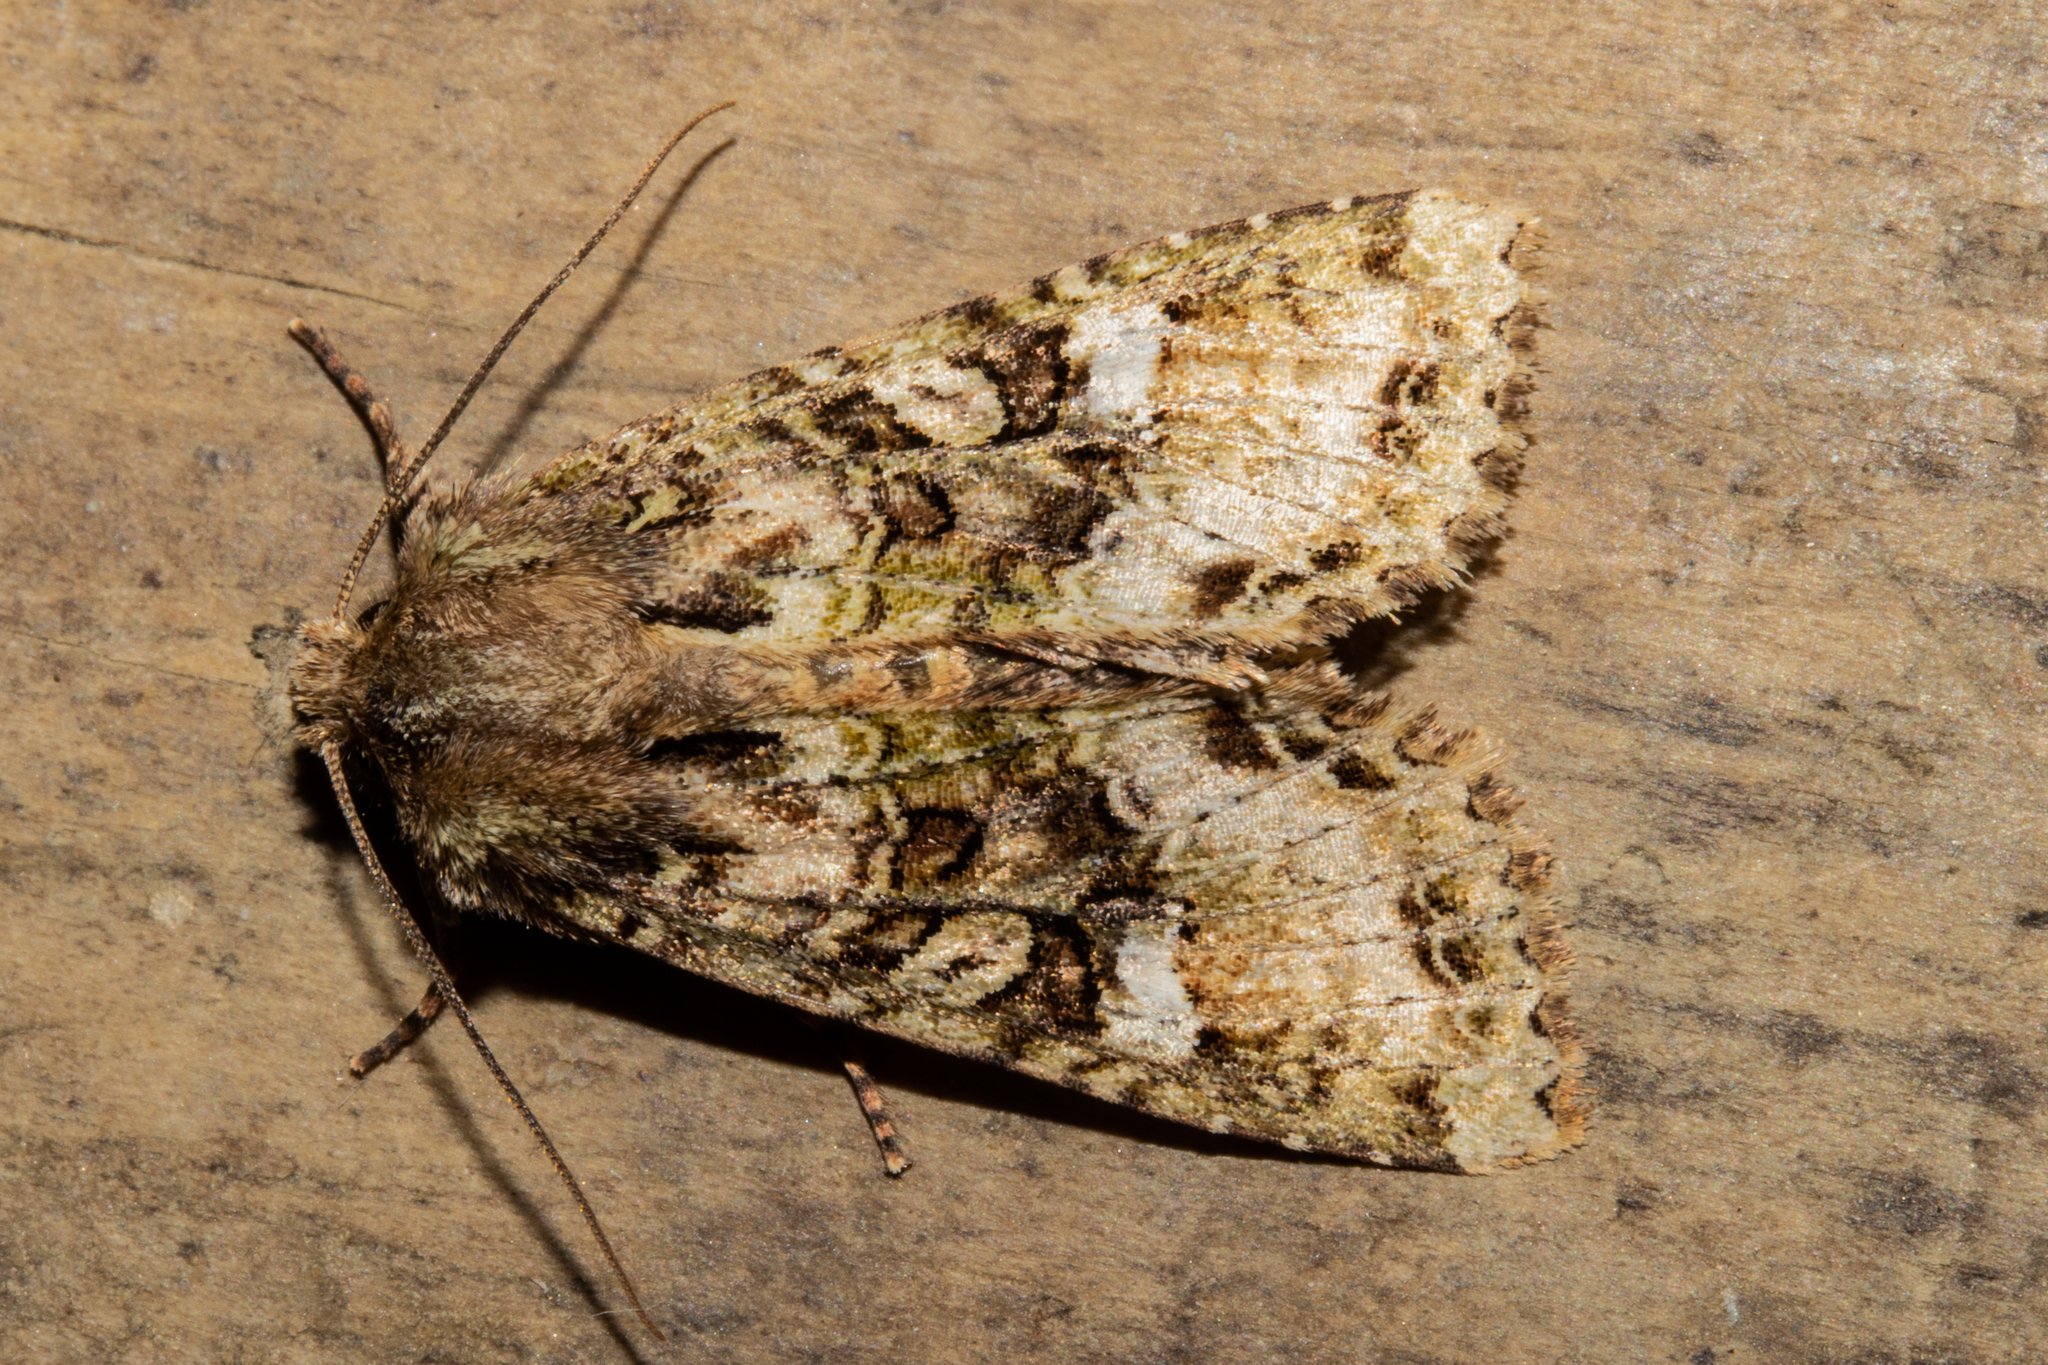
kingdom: Animalia
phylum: Arthropoda
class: Insecta
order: Lepidoptera
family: Noctuidae
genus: Meterana
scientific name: Meterana
